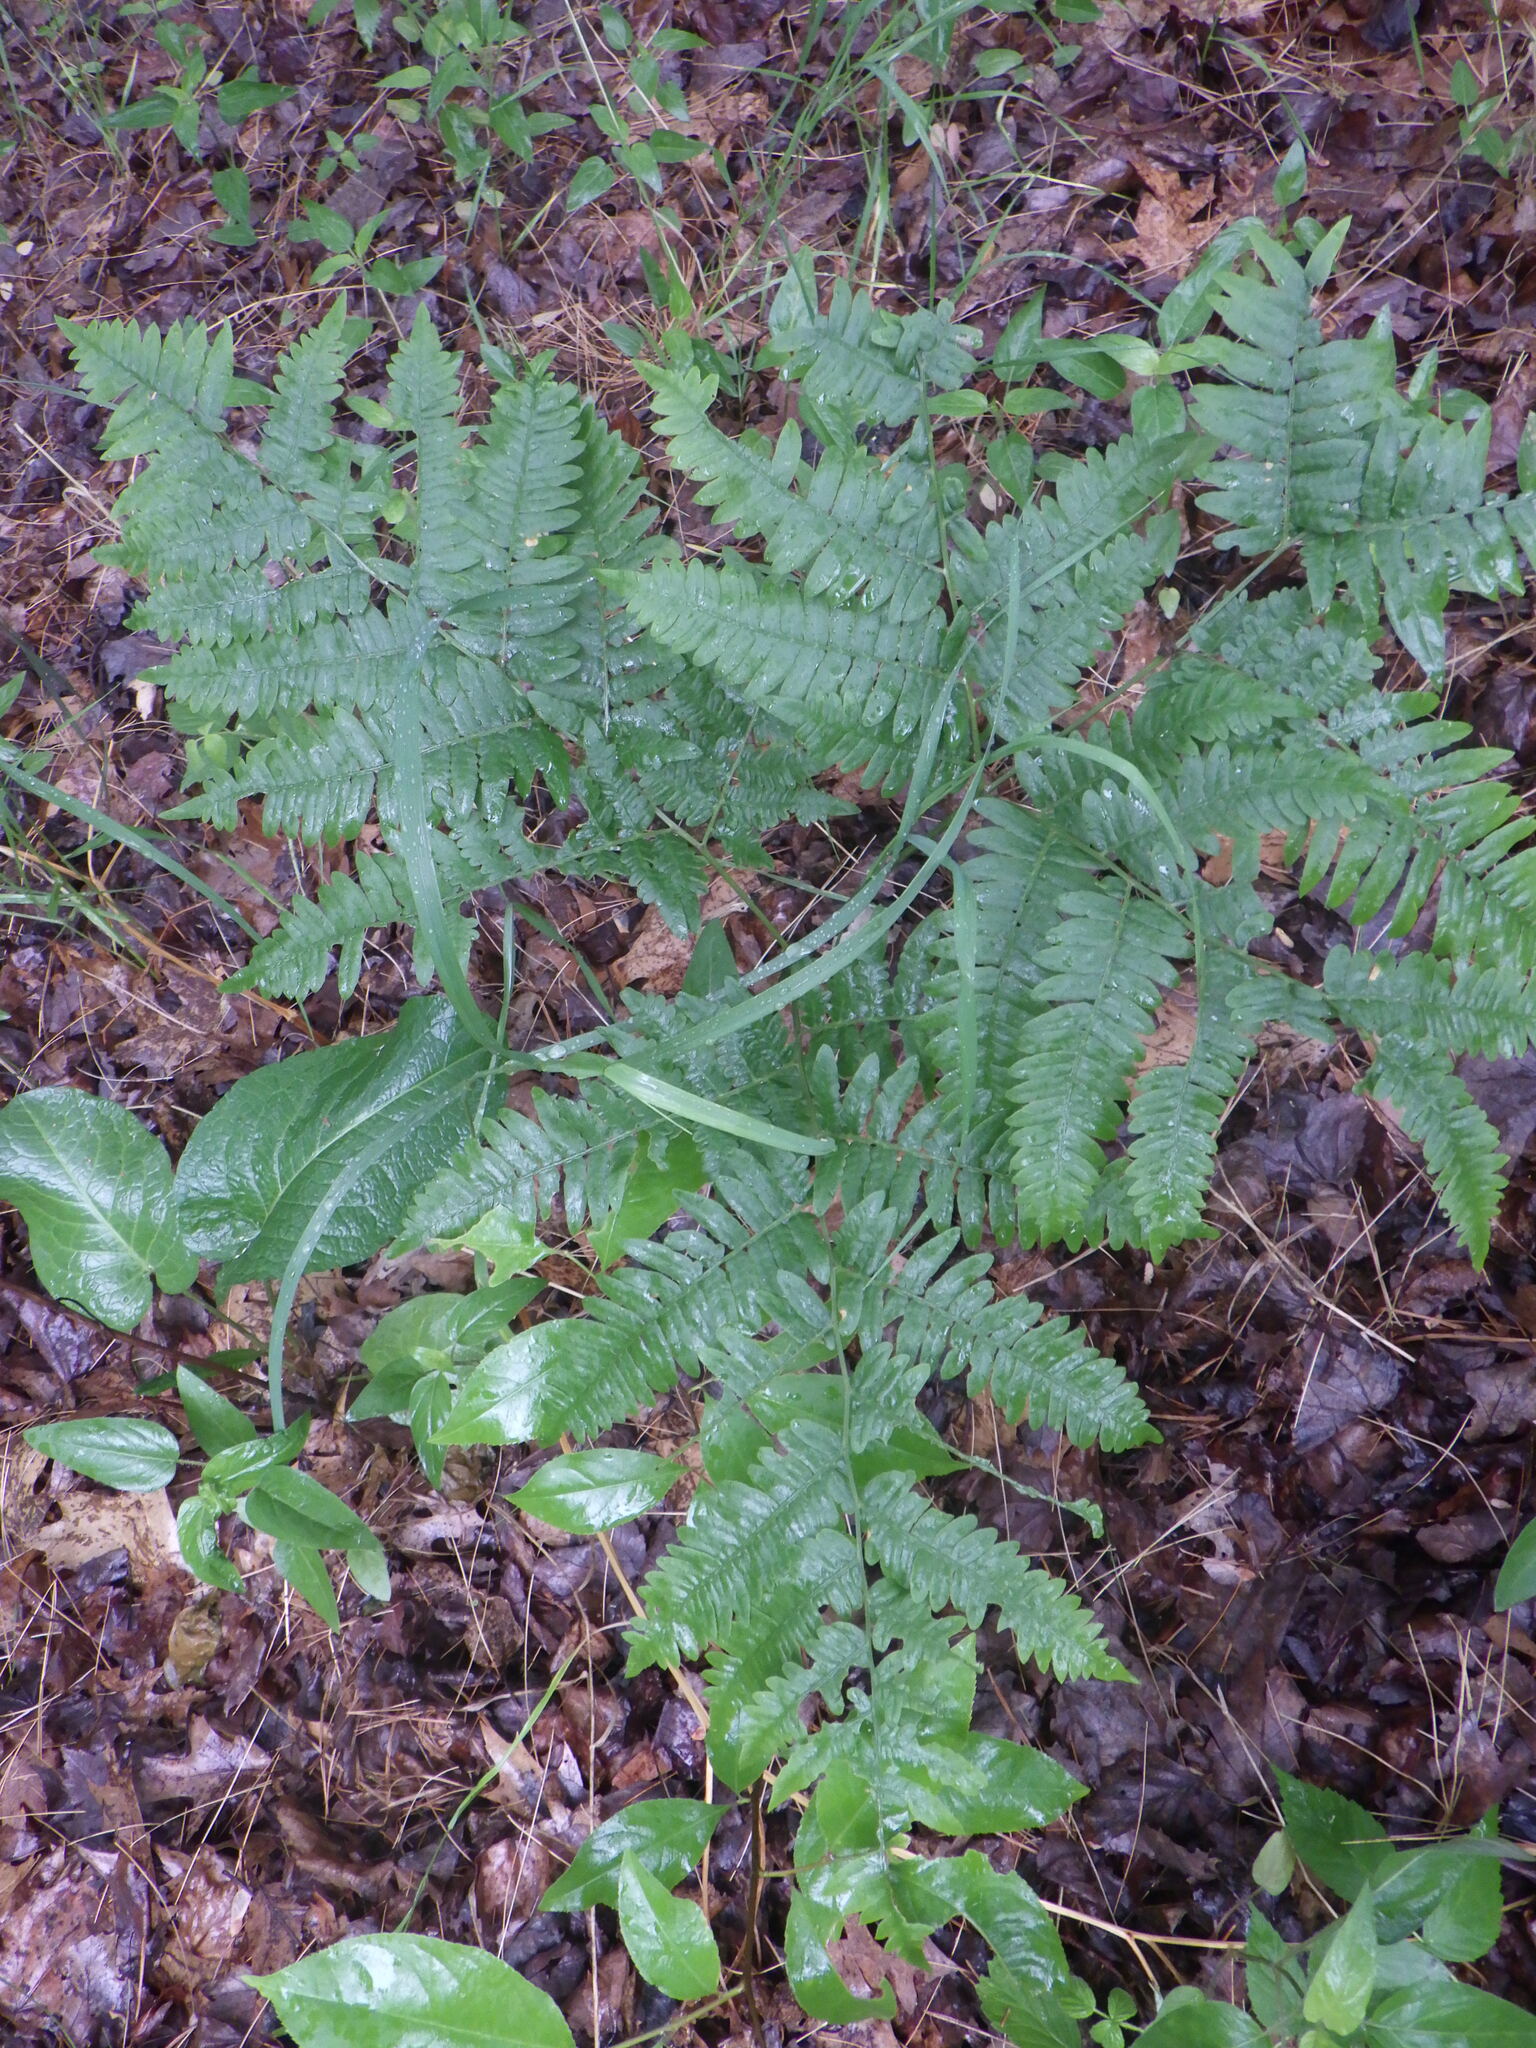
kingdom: Plantae
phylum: Tracheophyta
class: Polypodiopsida
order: Polypodiales
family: Dennstaedtiaceae
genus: Pteridium
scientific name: Pteridium aquilinum
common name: Bracken
